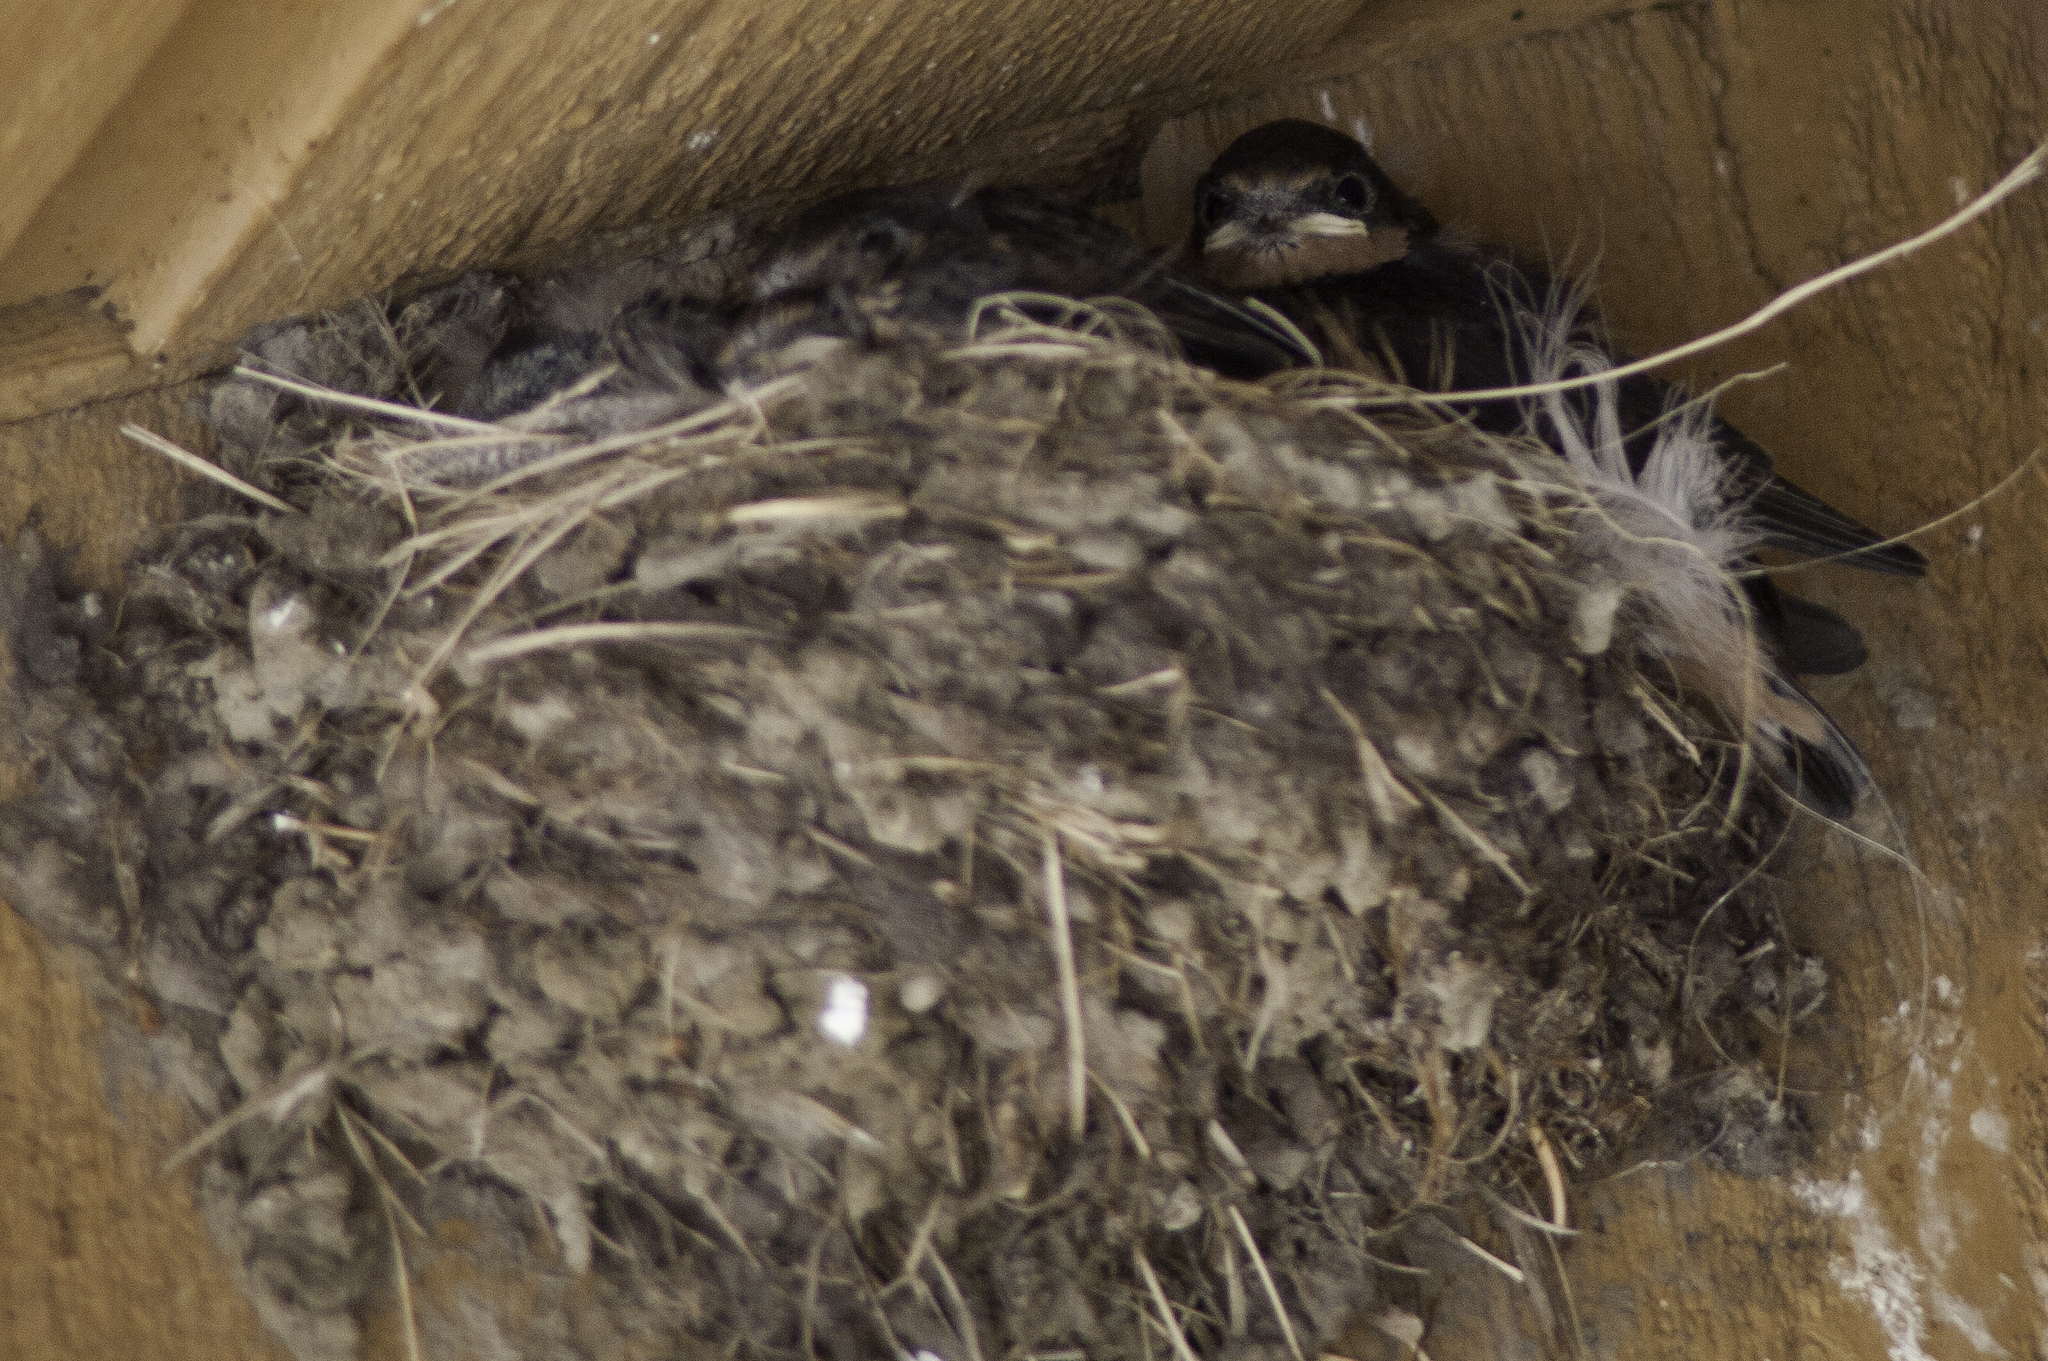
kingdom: Animalia
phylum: Chordata
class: Aves
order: Passeriformes
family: Hirundinidae
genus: Hirundo
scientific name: Hirundo rustica
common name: Barn swallow
